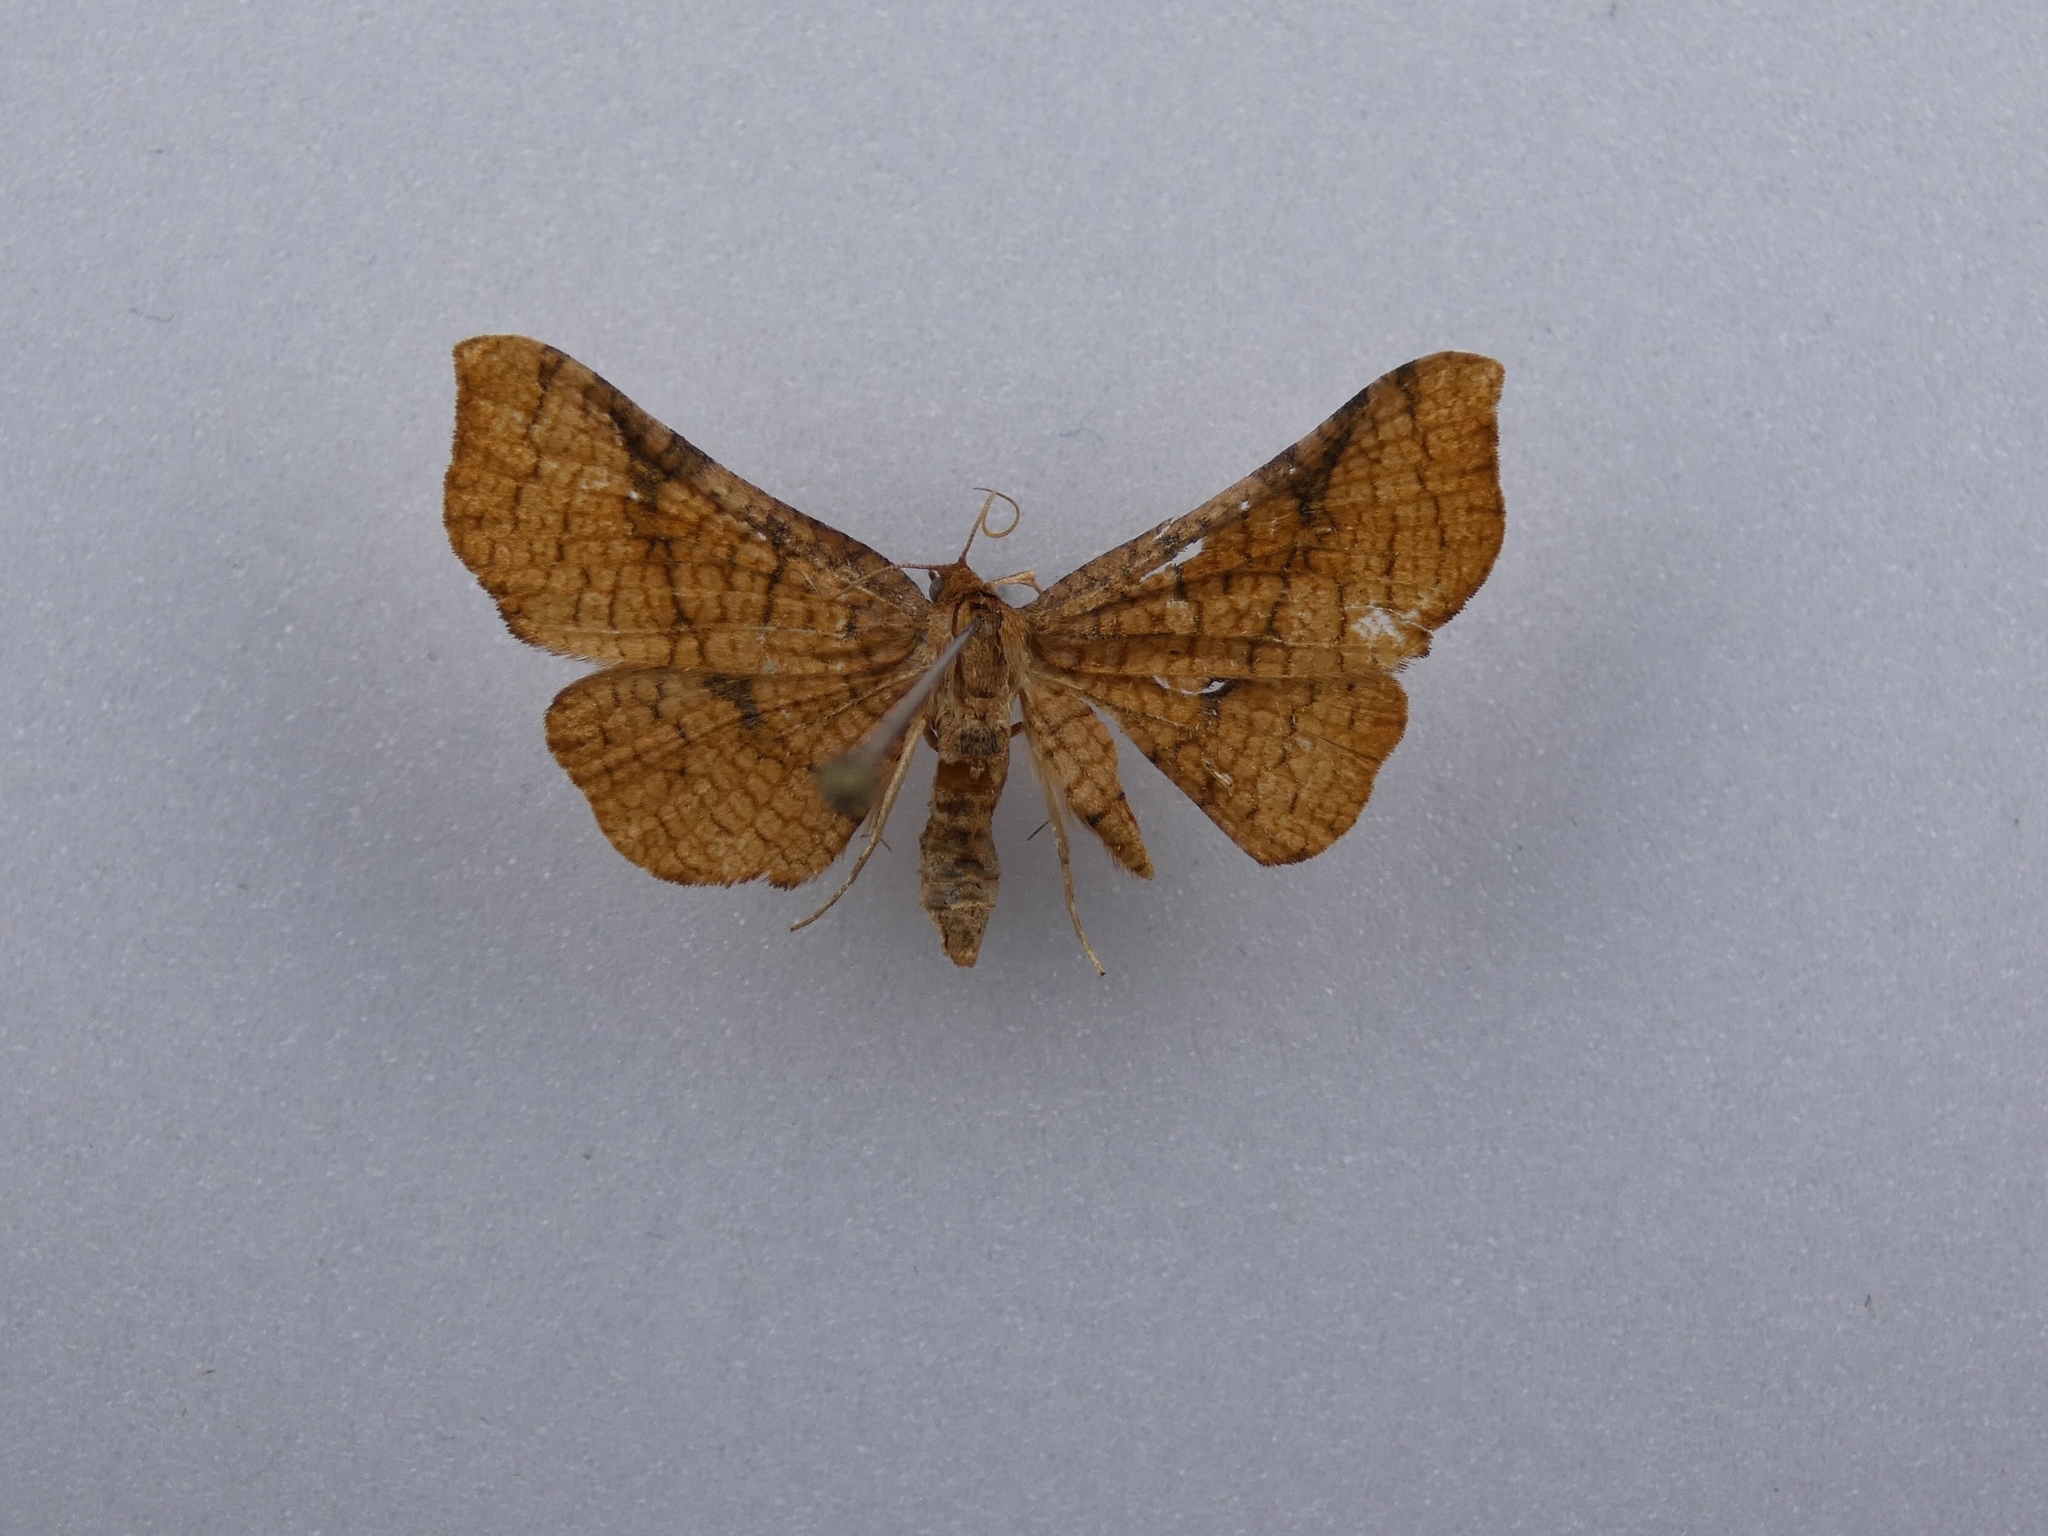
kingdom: Animalia
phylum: Arthropoda
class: Insecta
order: Lepidoptera
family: Thyrididae
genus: Morova
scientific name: Morova subfasciata
